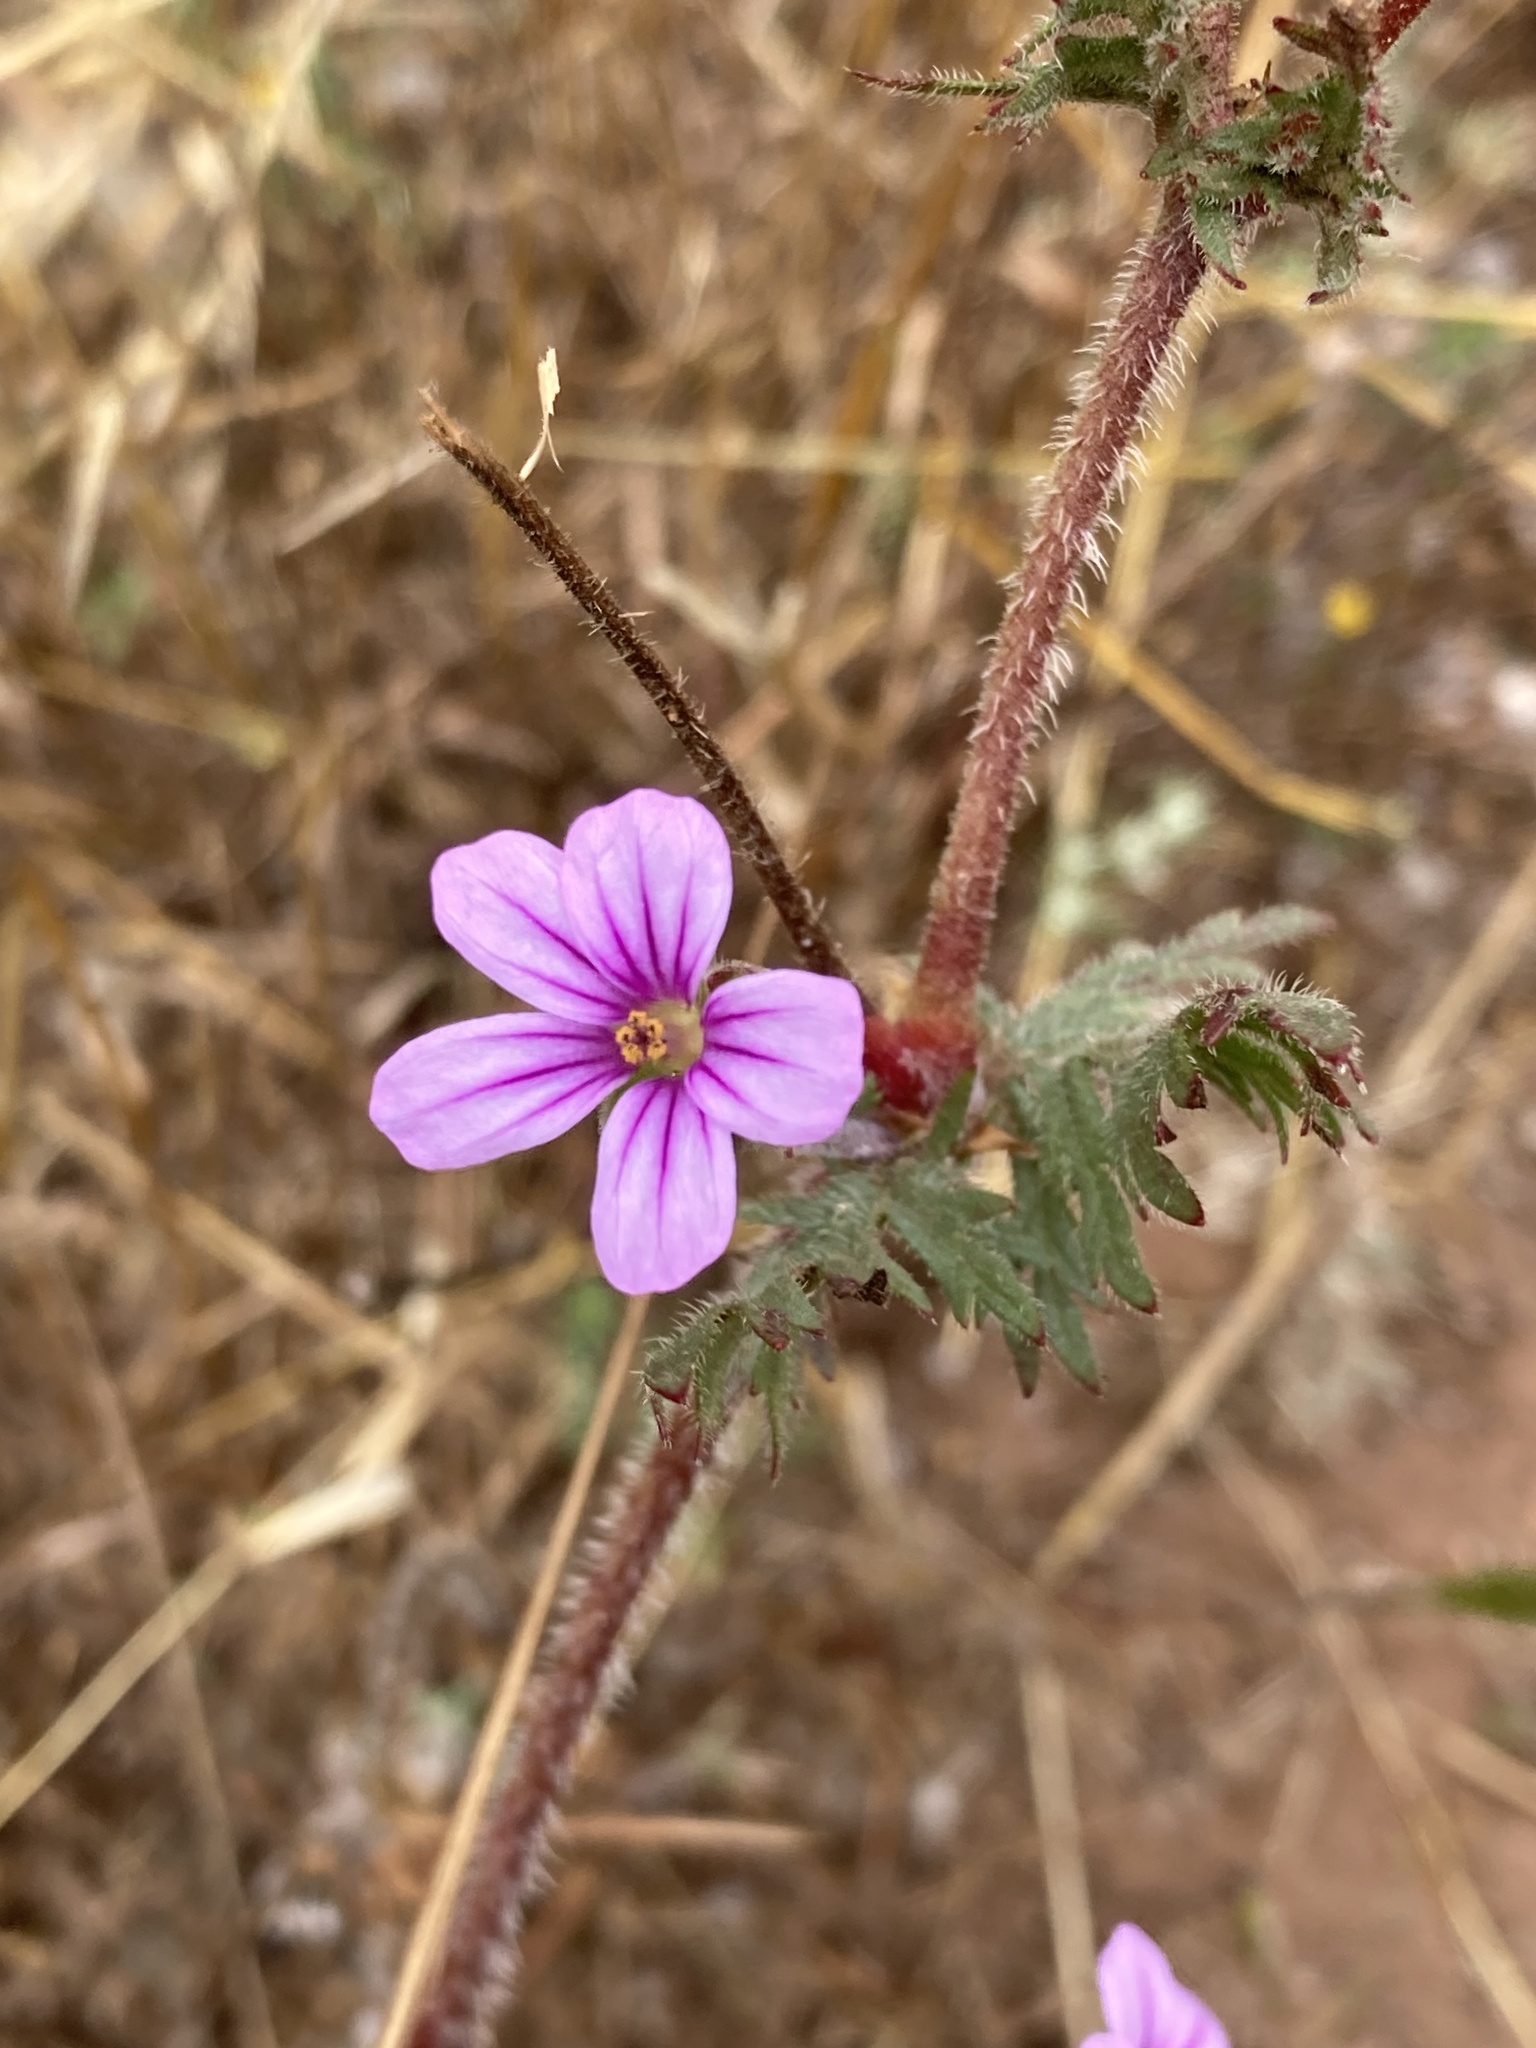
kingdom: Plantae
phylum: Tracheophyta
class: Magnoliopsida
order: Geraniales
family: Geraniaceae
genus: Erodium
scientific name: Erodium botrys
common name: Mediterranean stork's-bill
